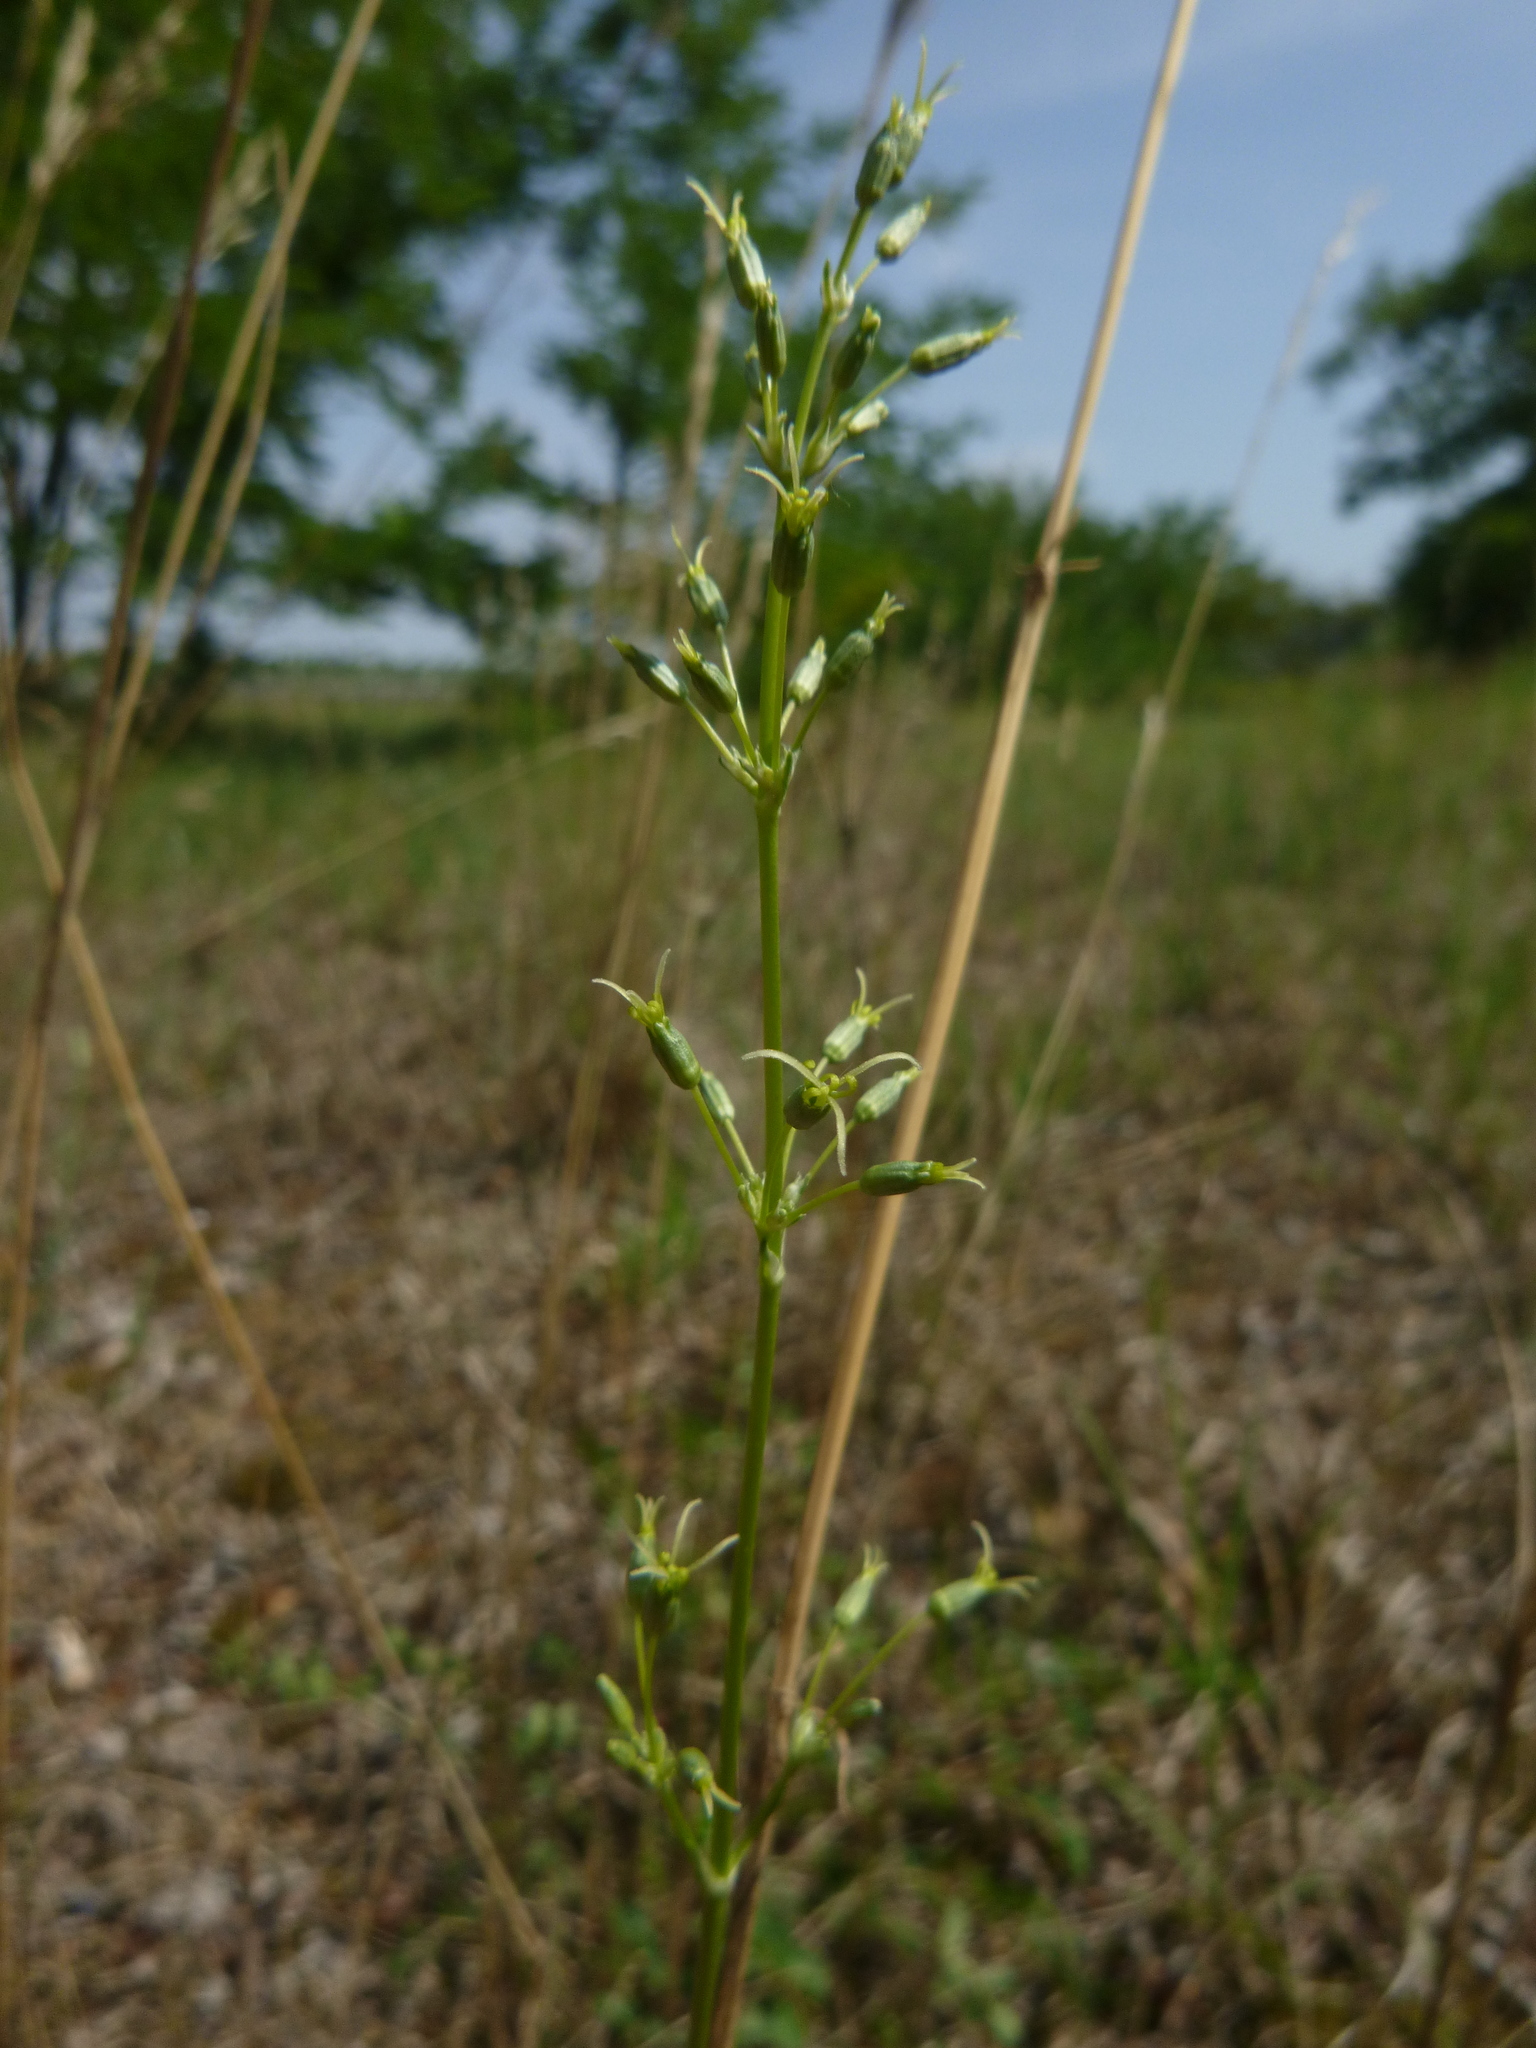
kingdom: Plantae
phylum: Tracheophyta
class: Magnoliopsida
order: Caryophyllales
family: Caryophyllaceae
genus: Silene
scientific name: Silene otites
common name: Spanish catchfly
